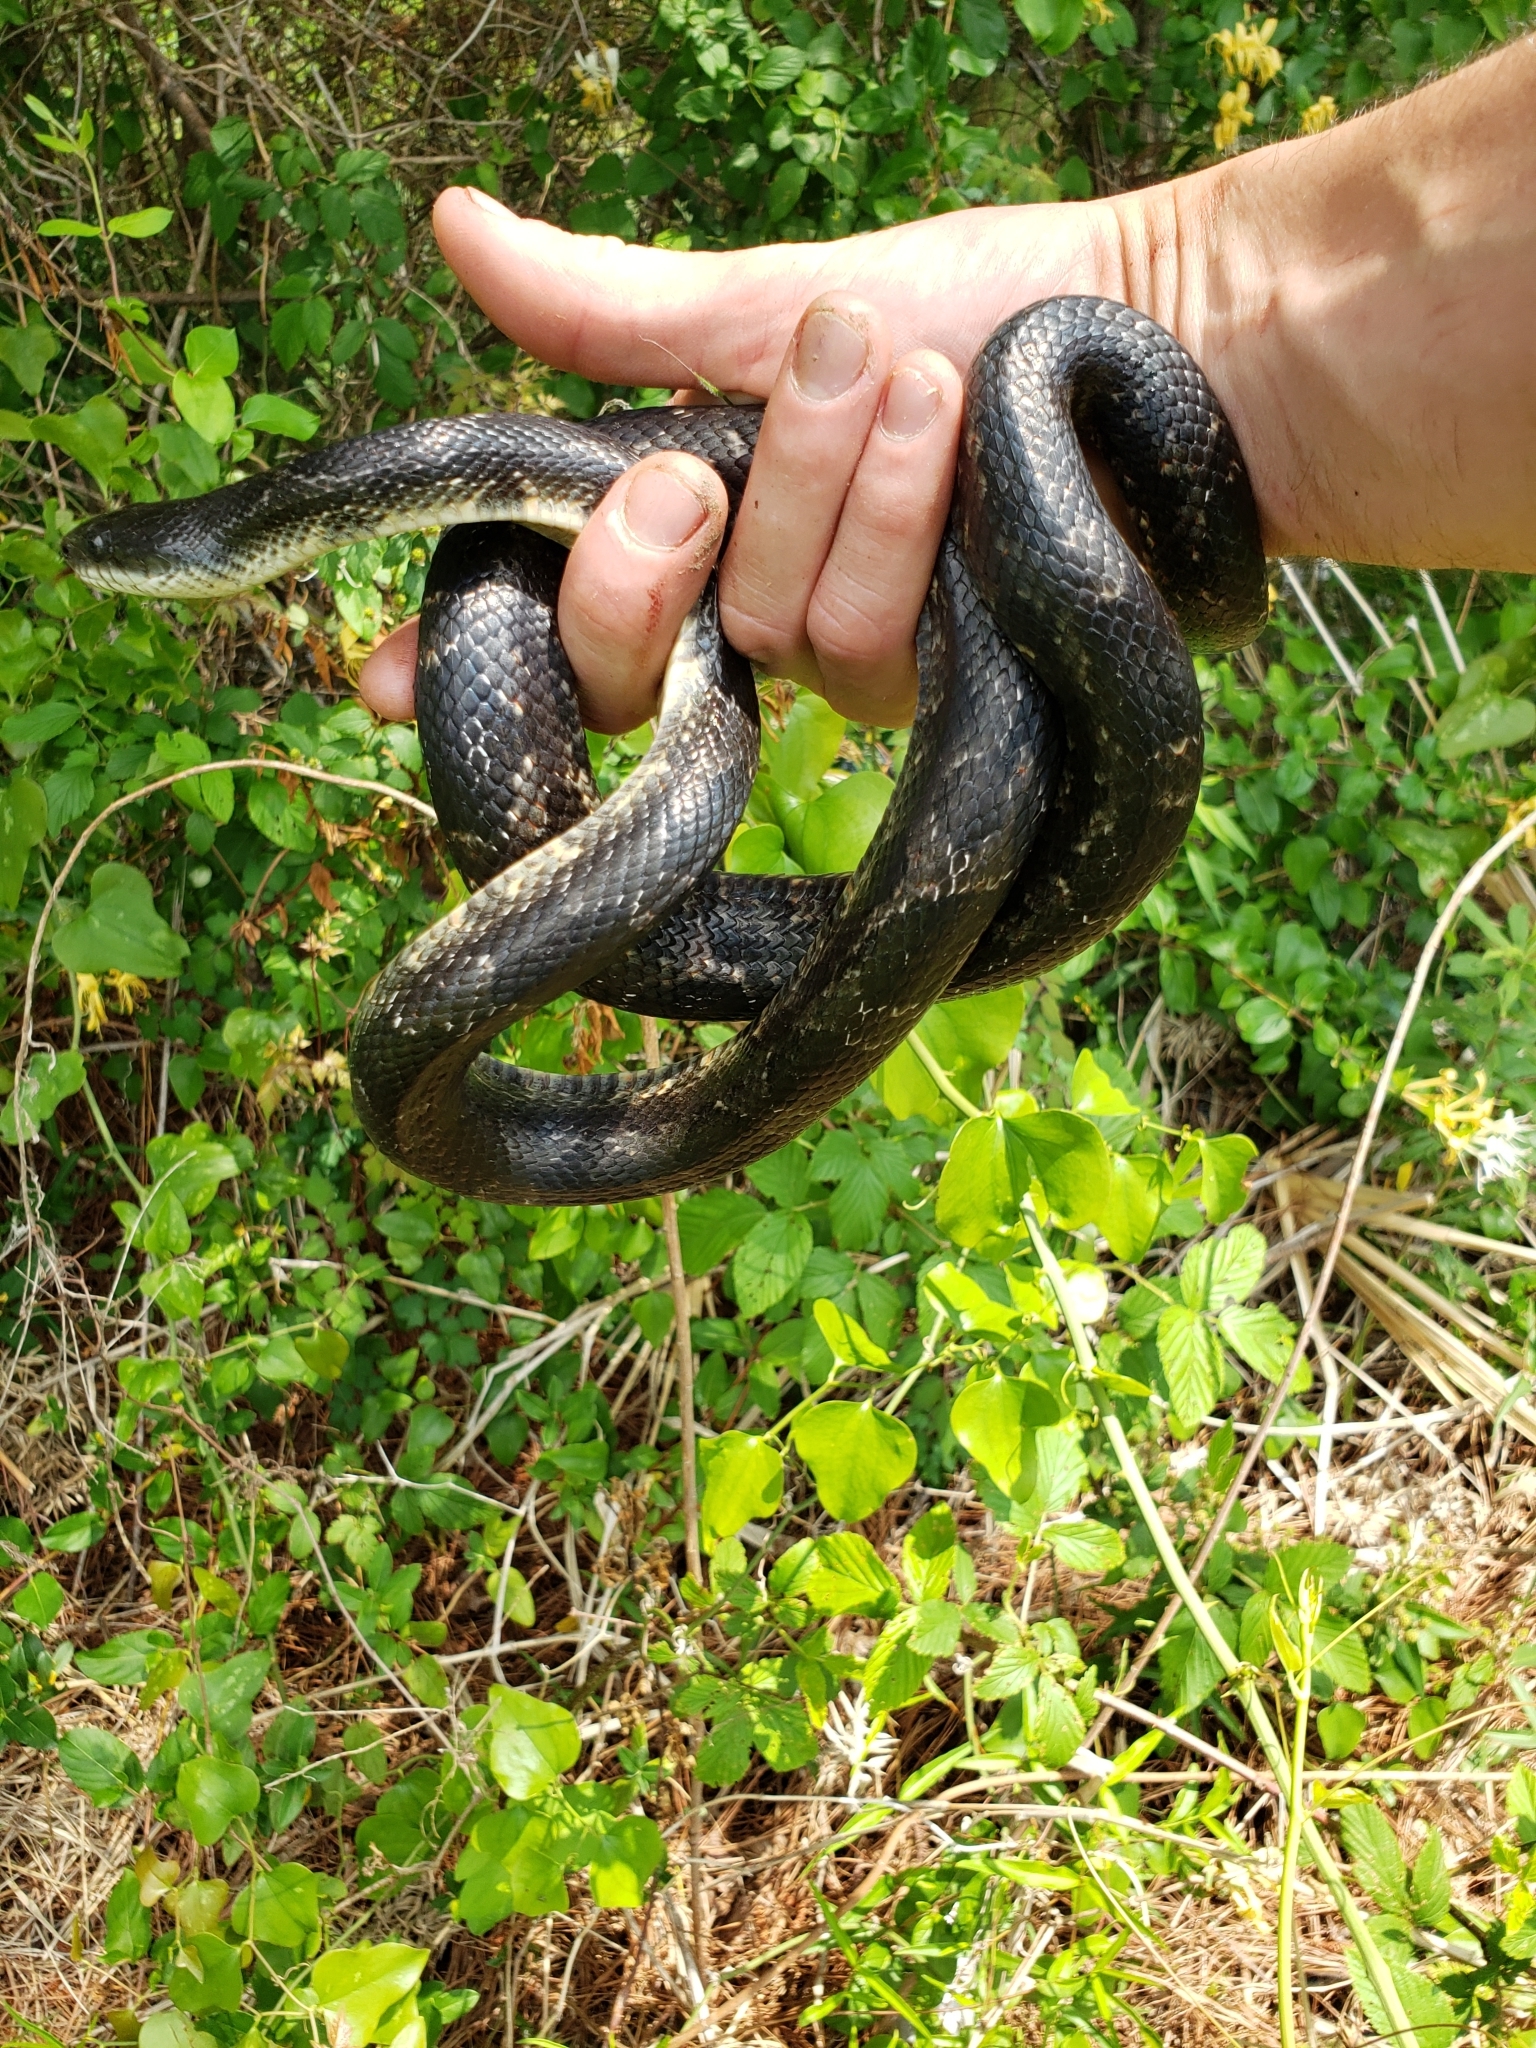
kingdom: Animalia
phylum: Chordata
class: Squamata
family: Colubridae
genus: Pantherophis
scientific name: Pantherophis obsoletus
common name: Black rat snake
